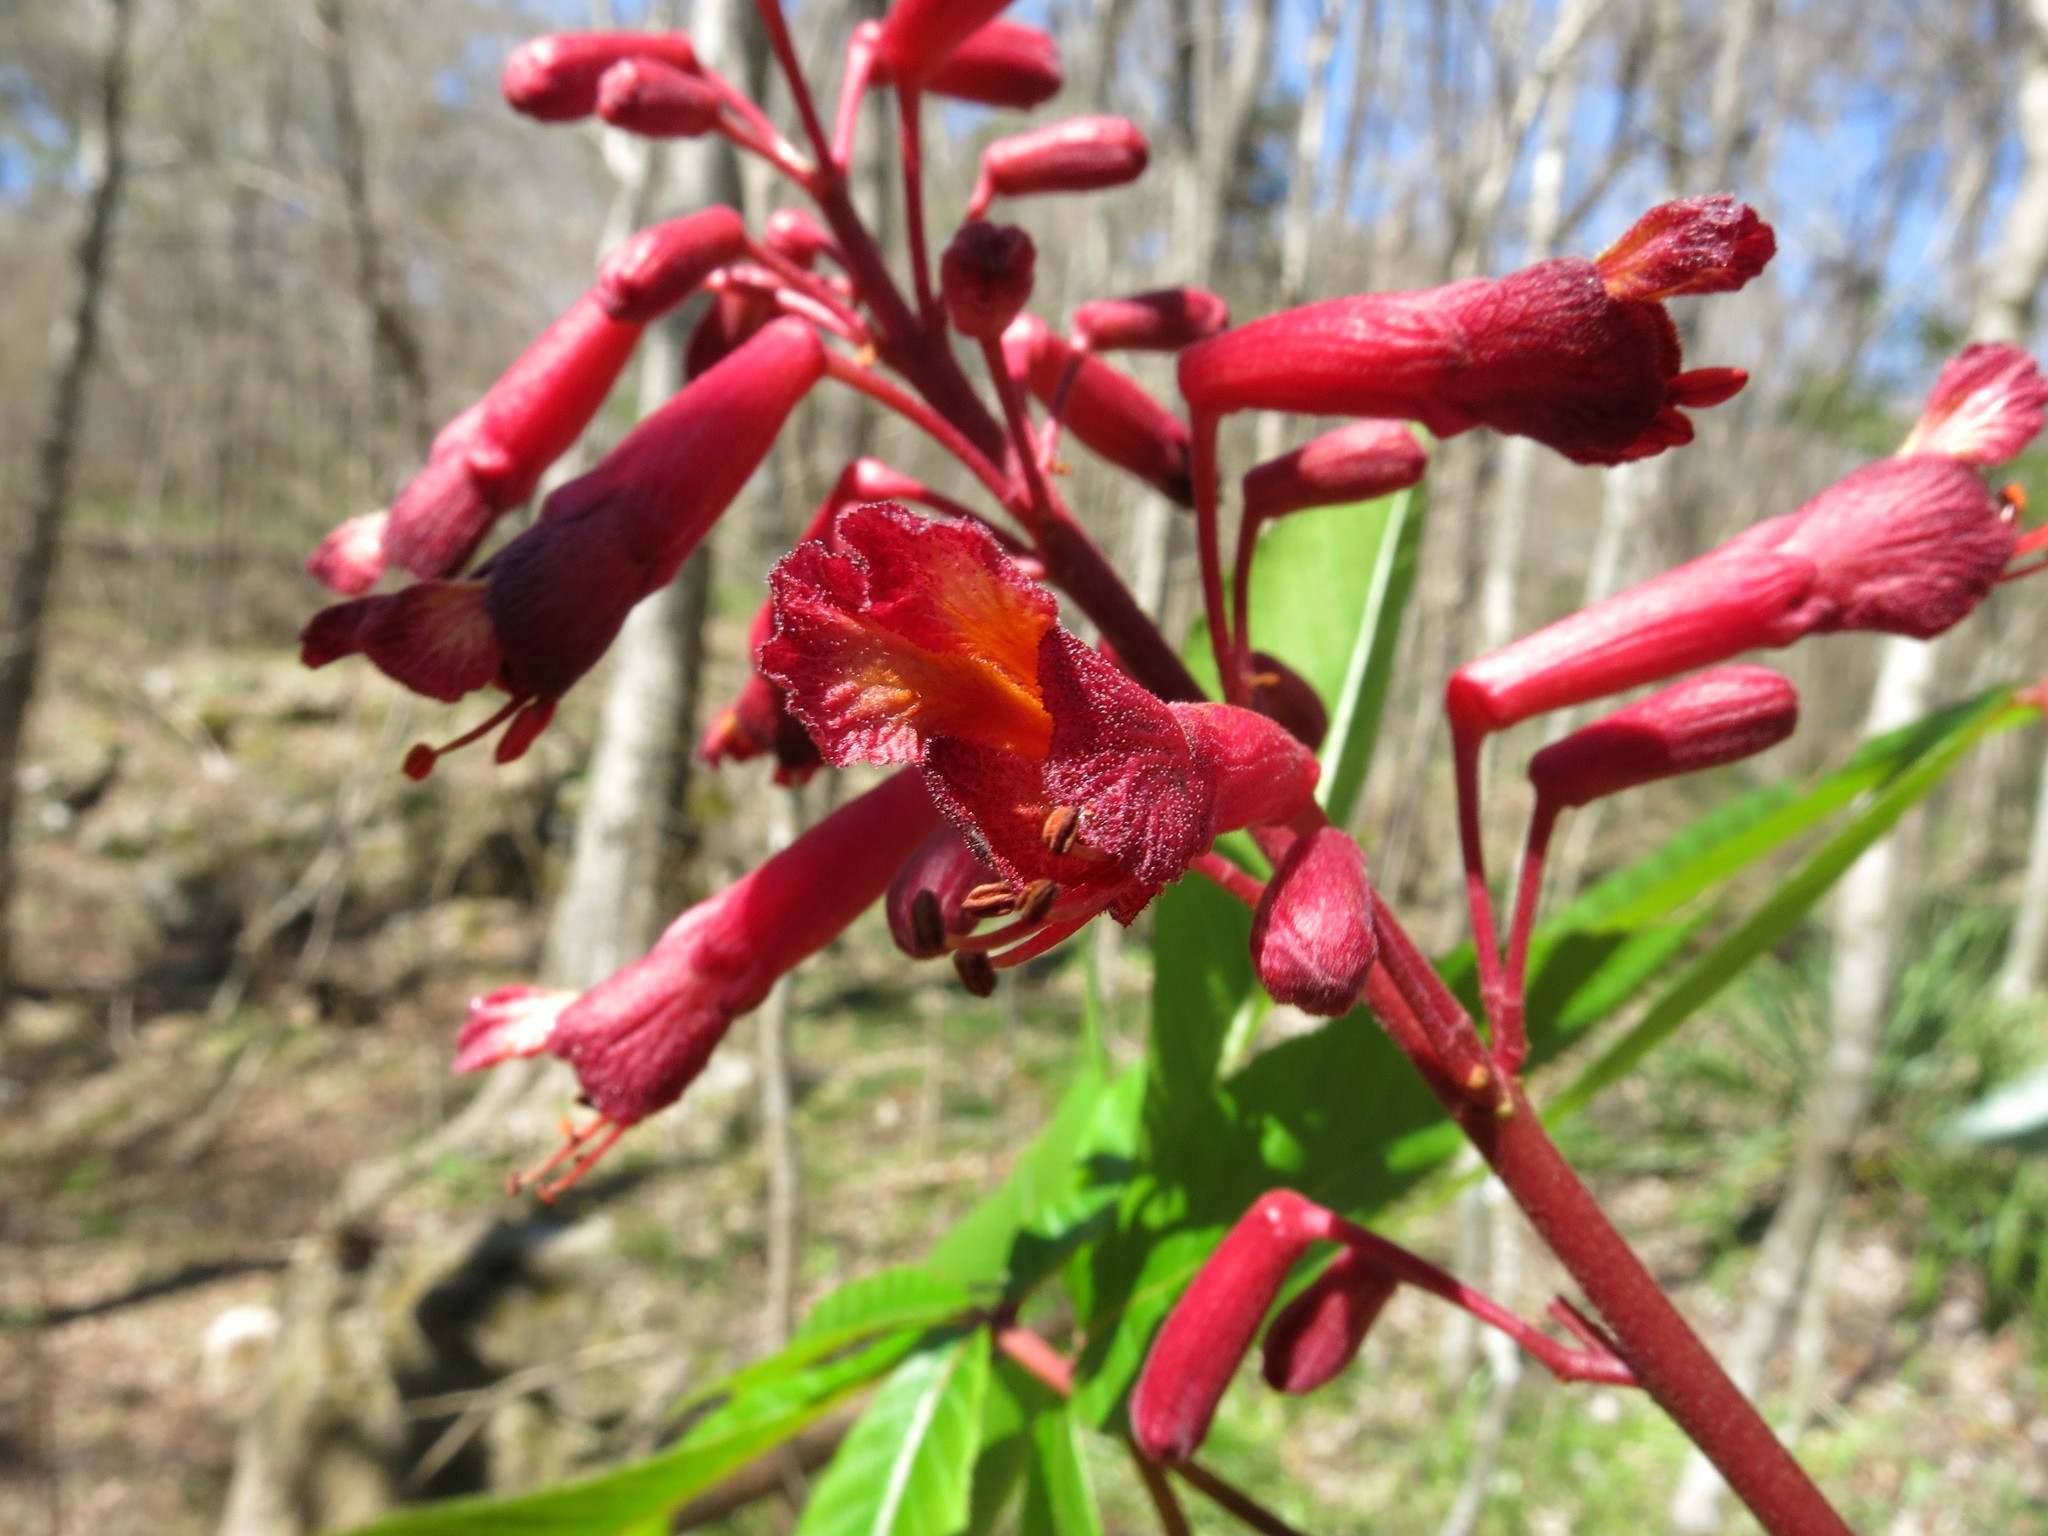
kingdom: Plantae
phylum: Tracheophyta
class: Magnoliopsida
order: Sapindales
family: Sapindaceae
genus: Aesculus
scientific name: Aesculus pavia
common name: Red buckeye
